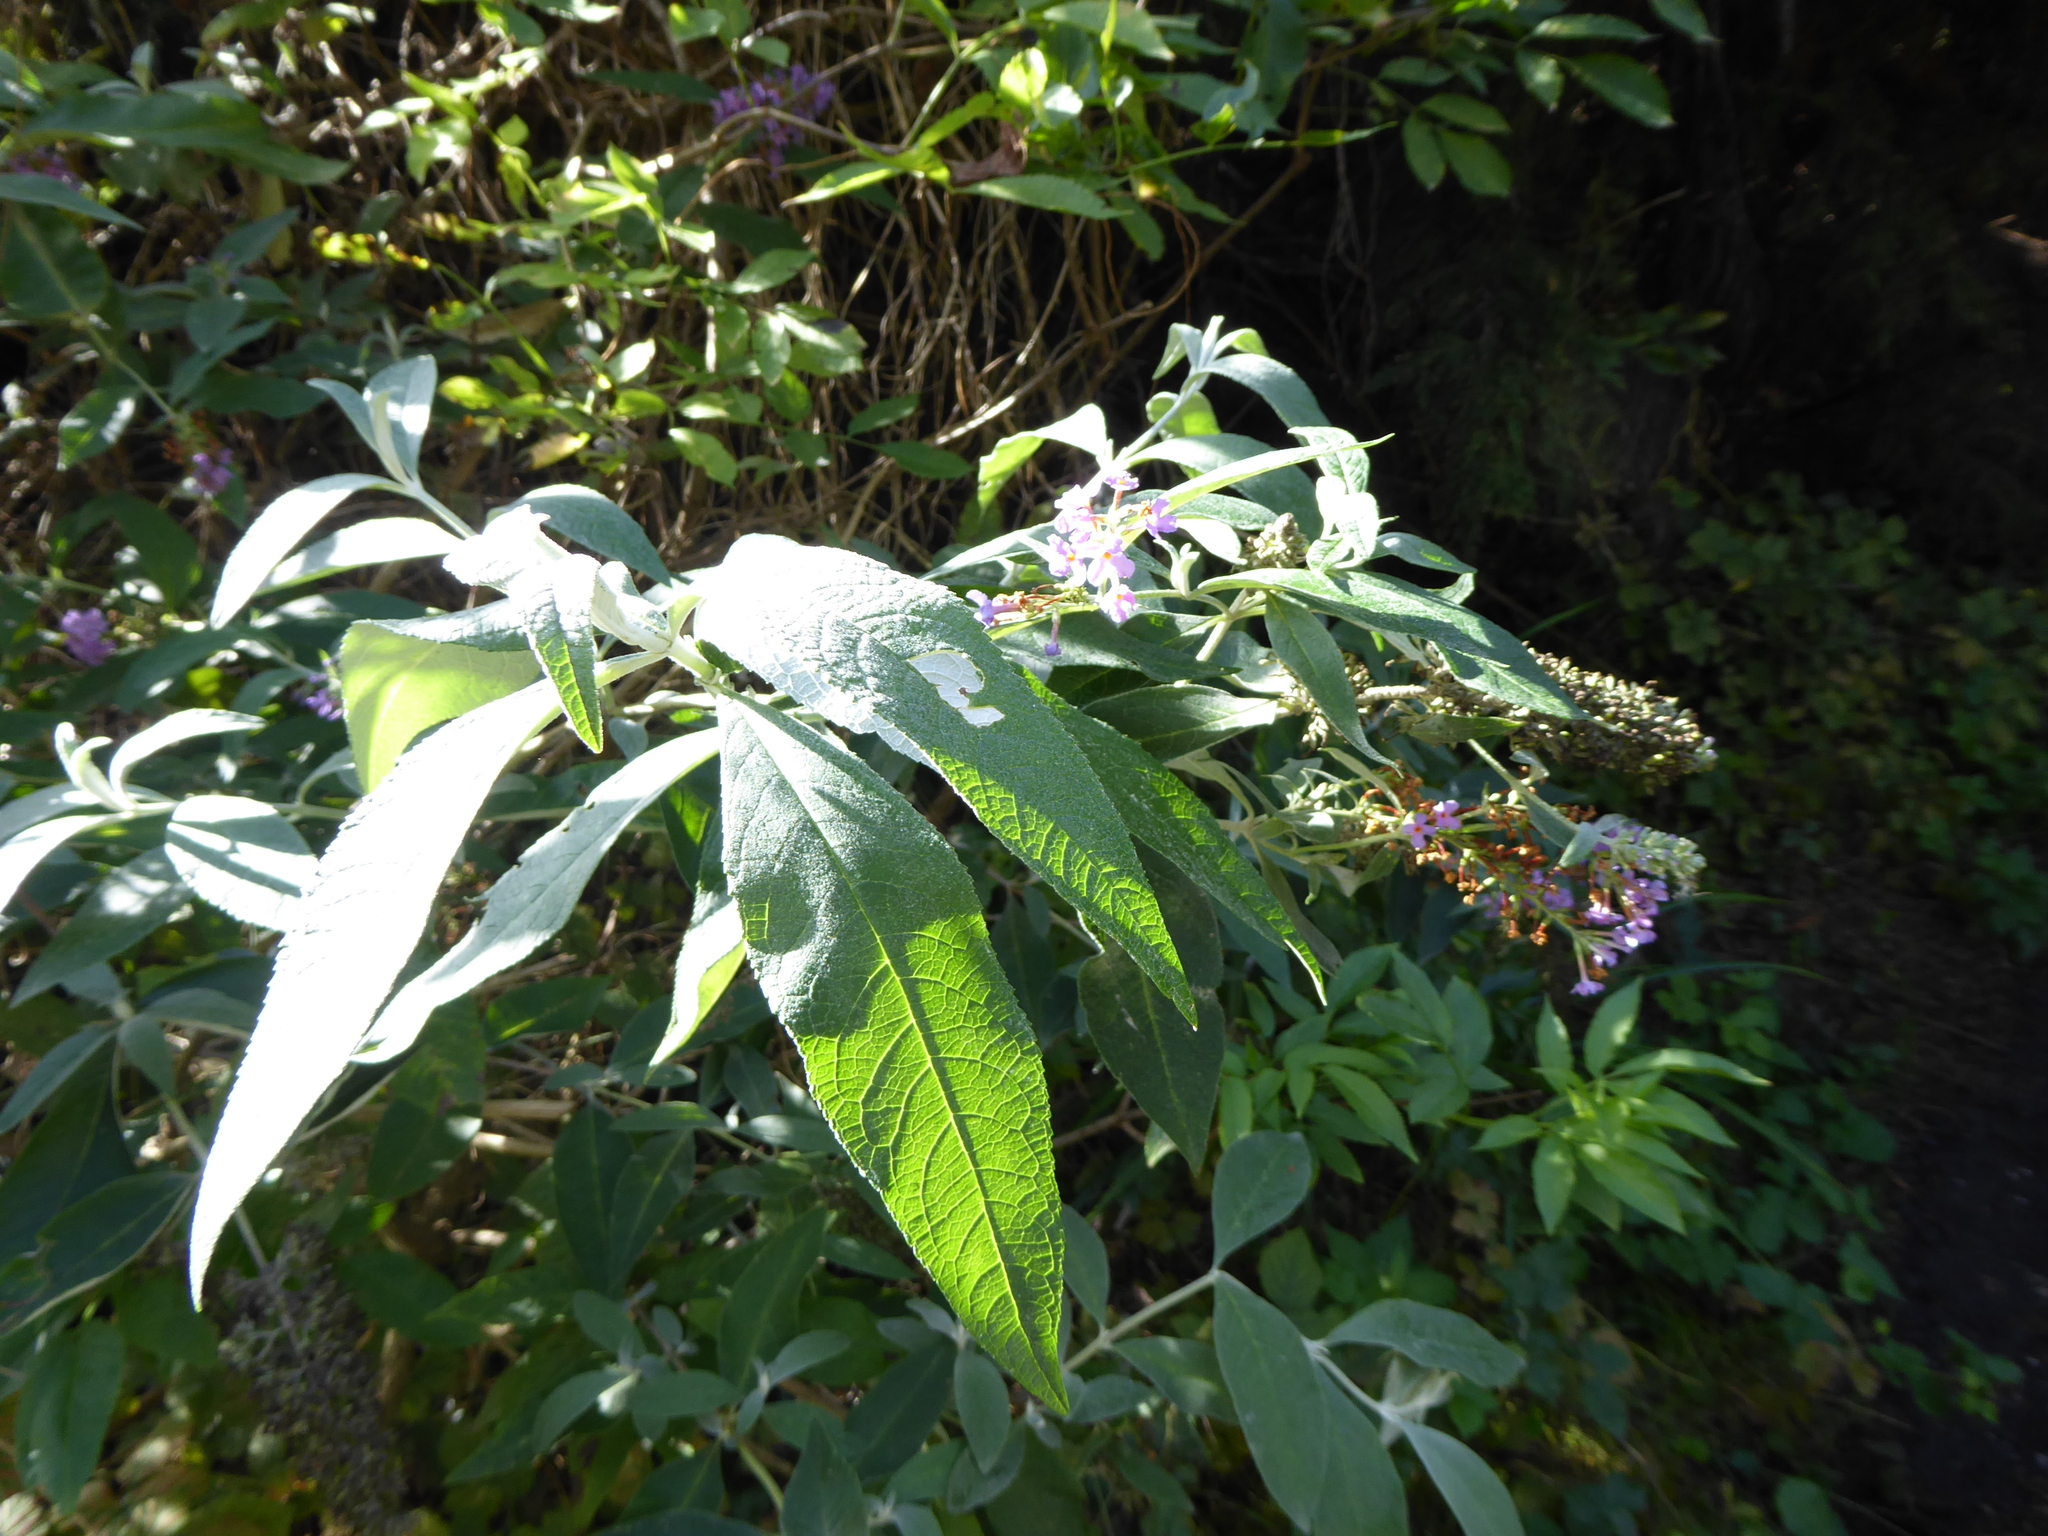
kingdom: Plantae
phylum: Tracheophyta
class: Magnoliopsida
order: Lamiales
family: Scrophulariaceae
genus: Buddleja
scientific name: Buddleja davidii
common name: Butterfly-bush
